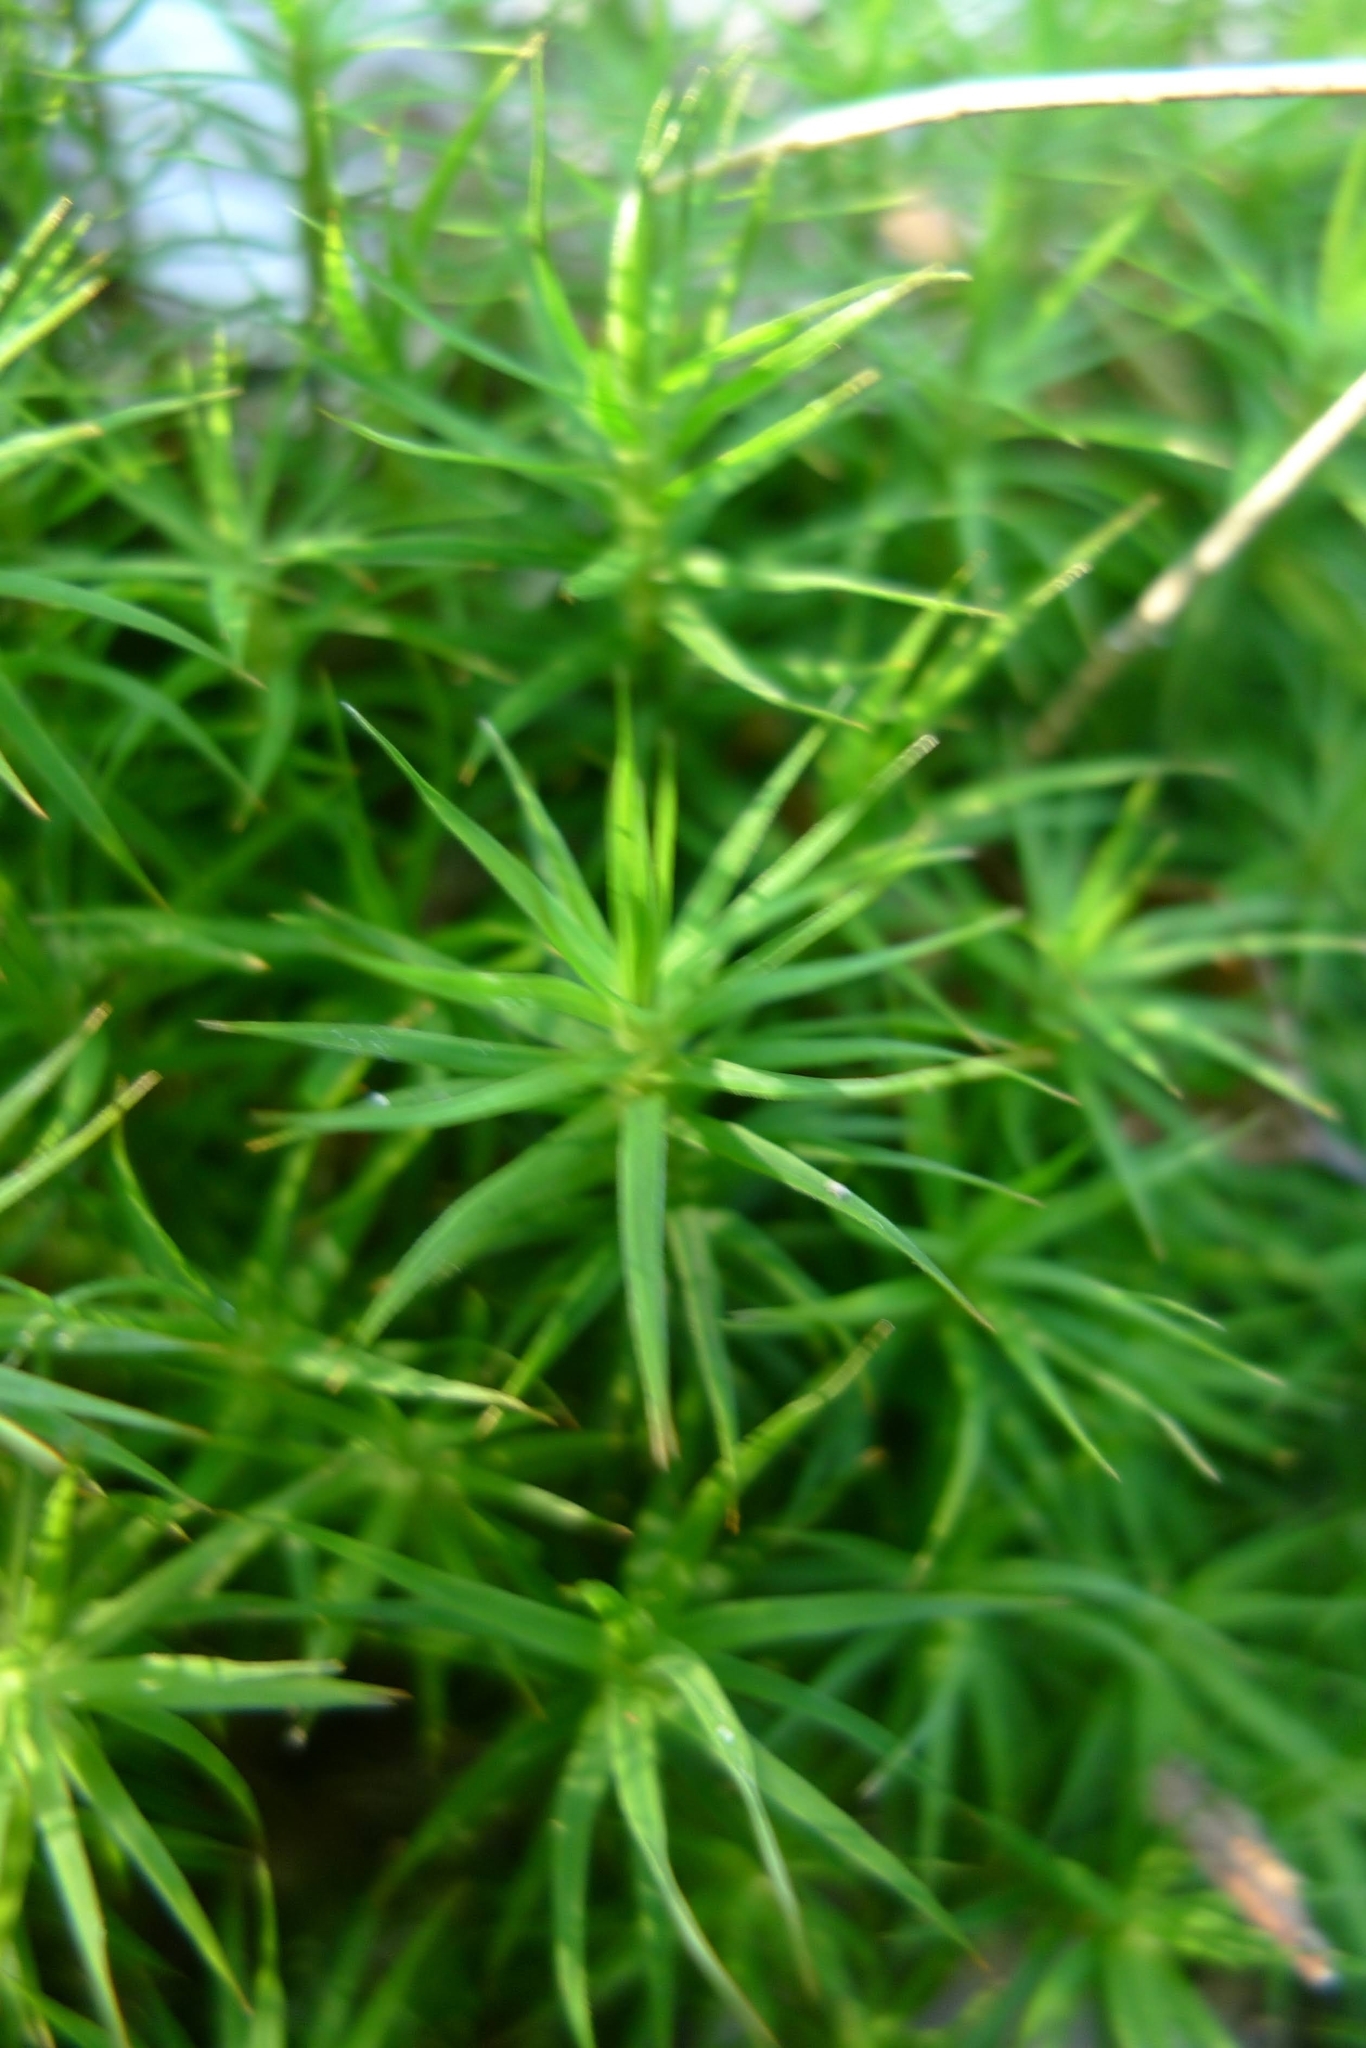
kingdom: Plantae
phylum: Bryophyta
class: Polytrichopsida
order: Polytrichales
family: Polytrichaceae
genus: Polytrichum
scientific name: Polytrichum formosum
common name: Bank haircap moss
